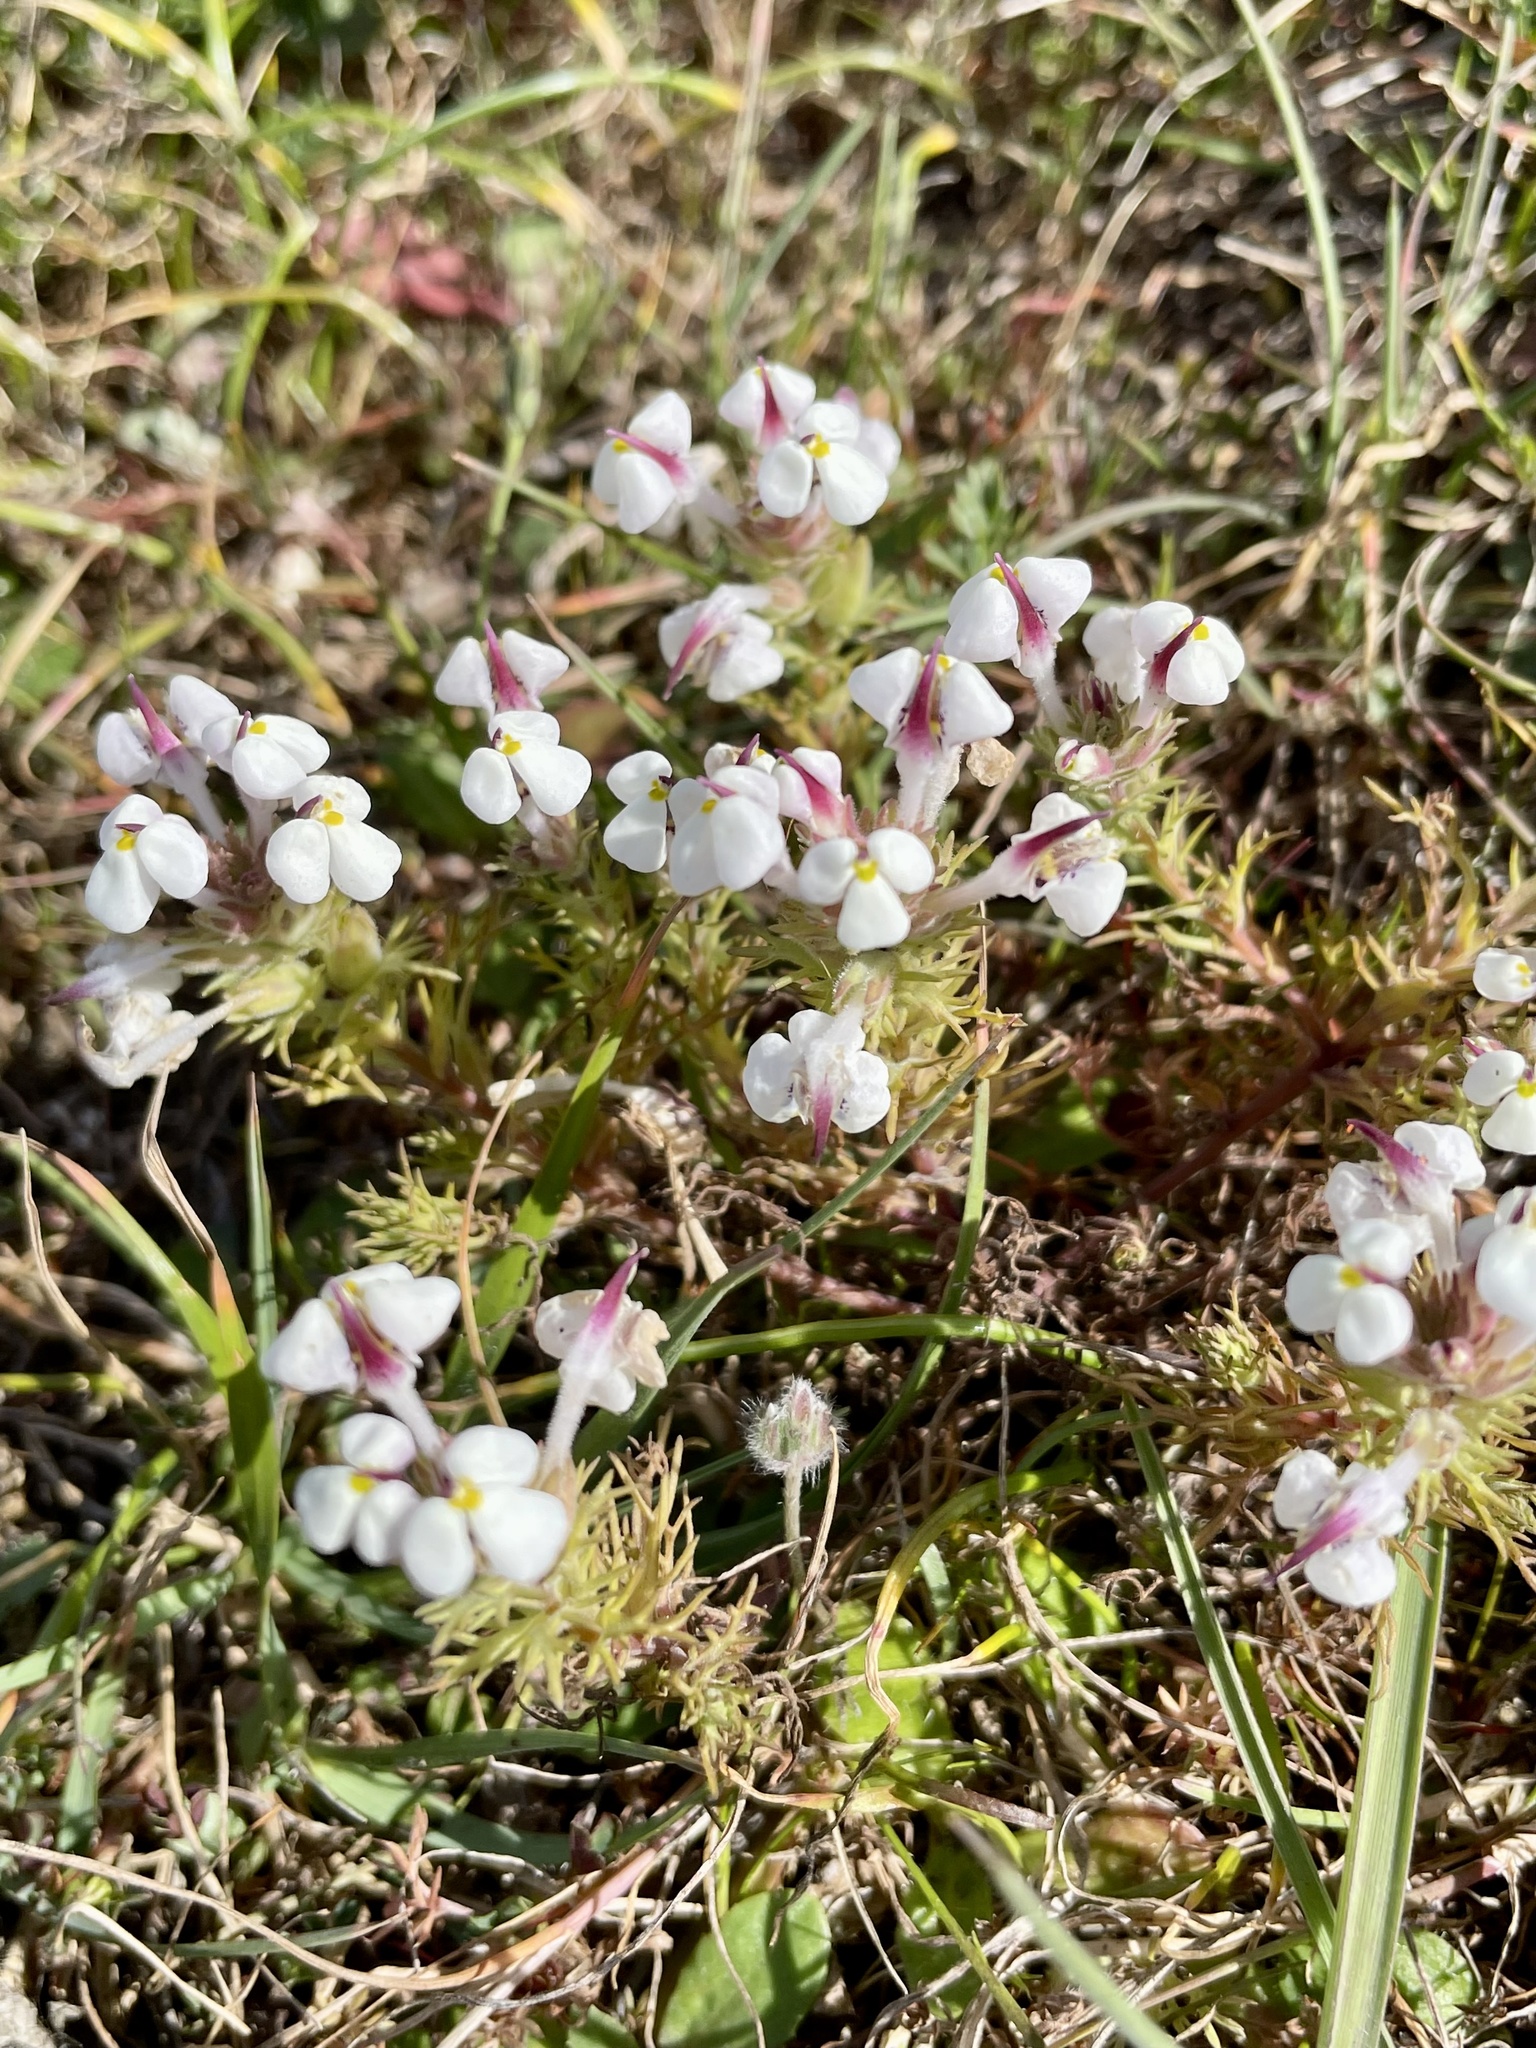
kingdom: Plantae
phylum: Tracheophyta
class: Magnoliopsida
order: Lamiales
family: Orobanchaceae
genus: Triphysaria
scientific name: Triphysaria eriantha
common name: Johnny-tuck
